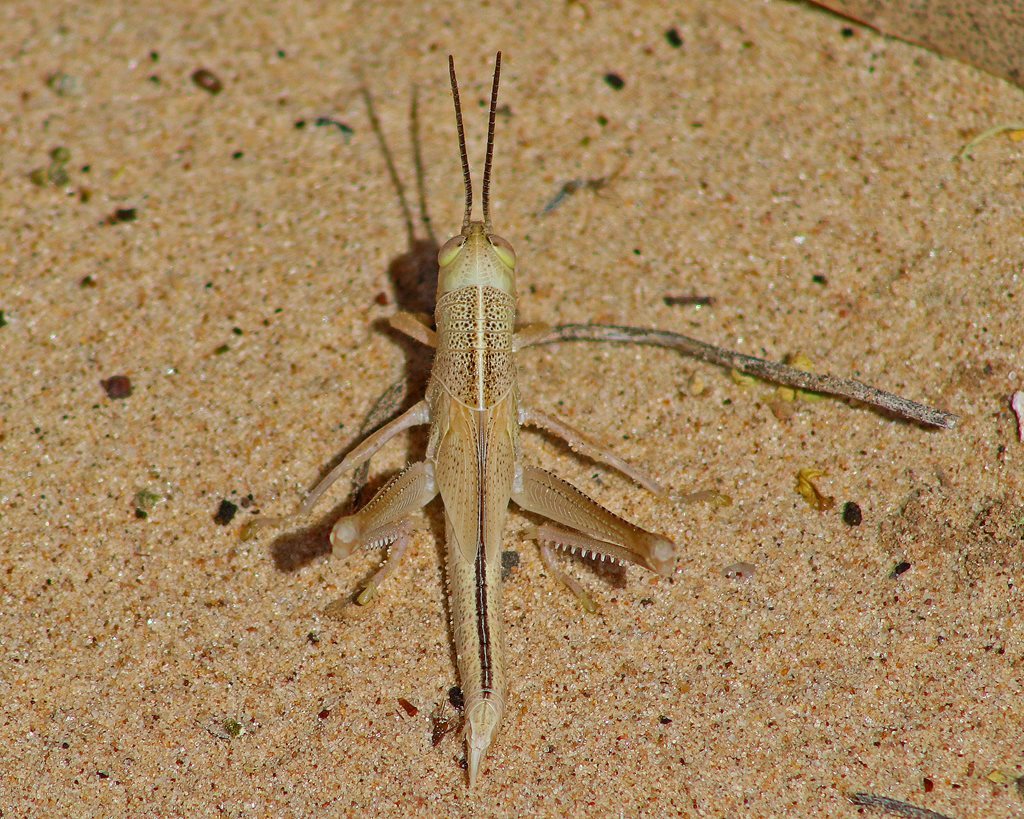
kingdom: Animalia
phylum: Arthropoda
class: Insecta
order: Orthoptera
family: Acrididae
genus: Austracris
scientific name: Austracris guttulosa
